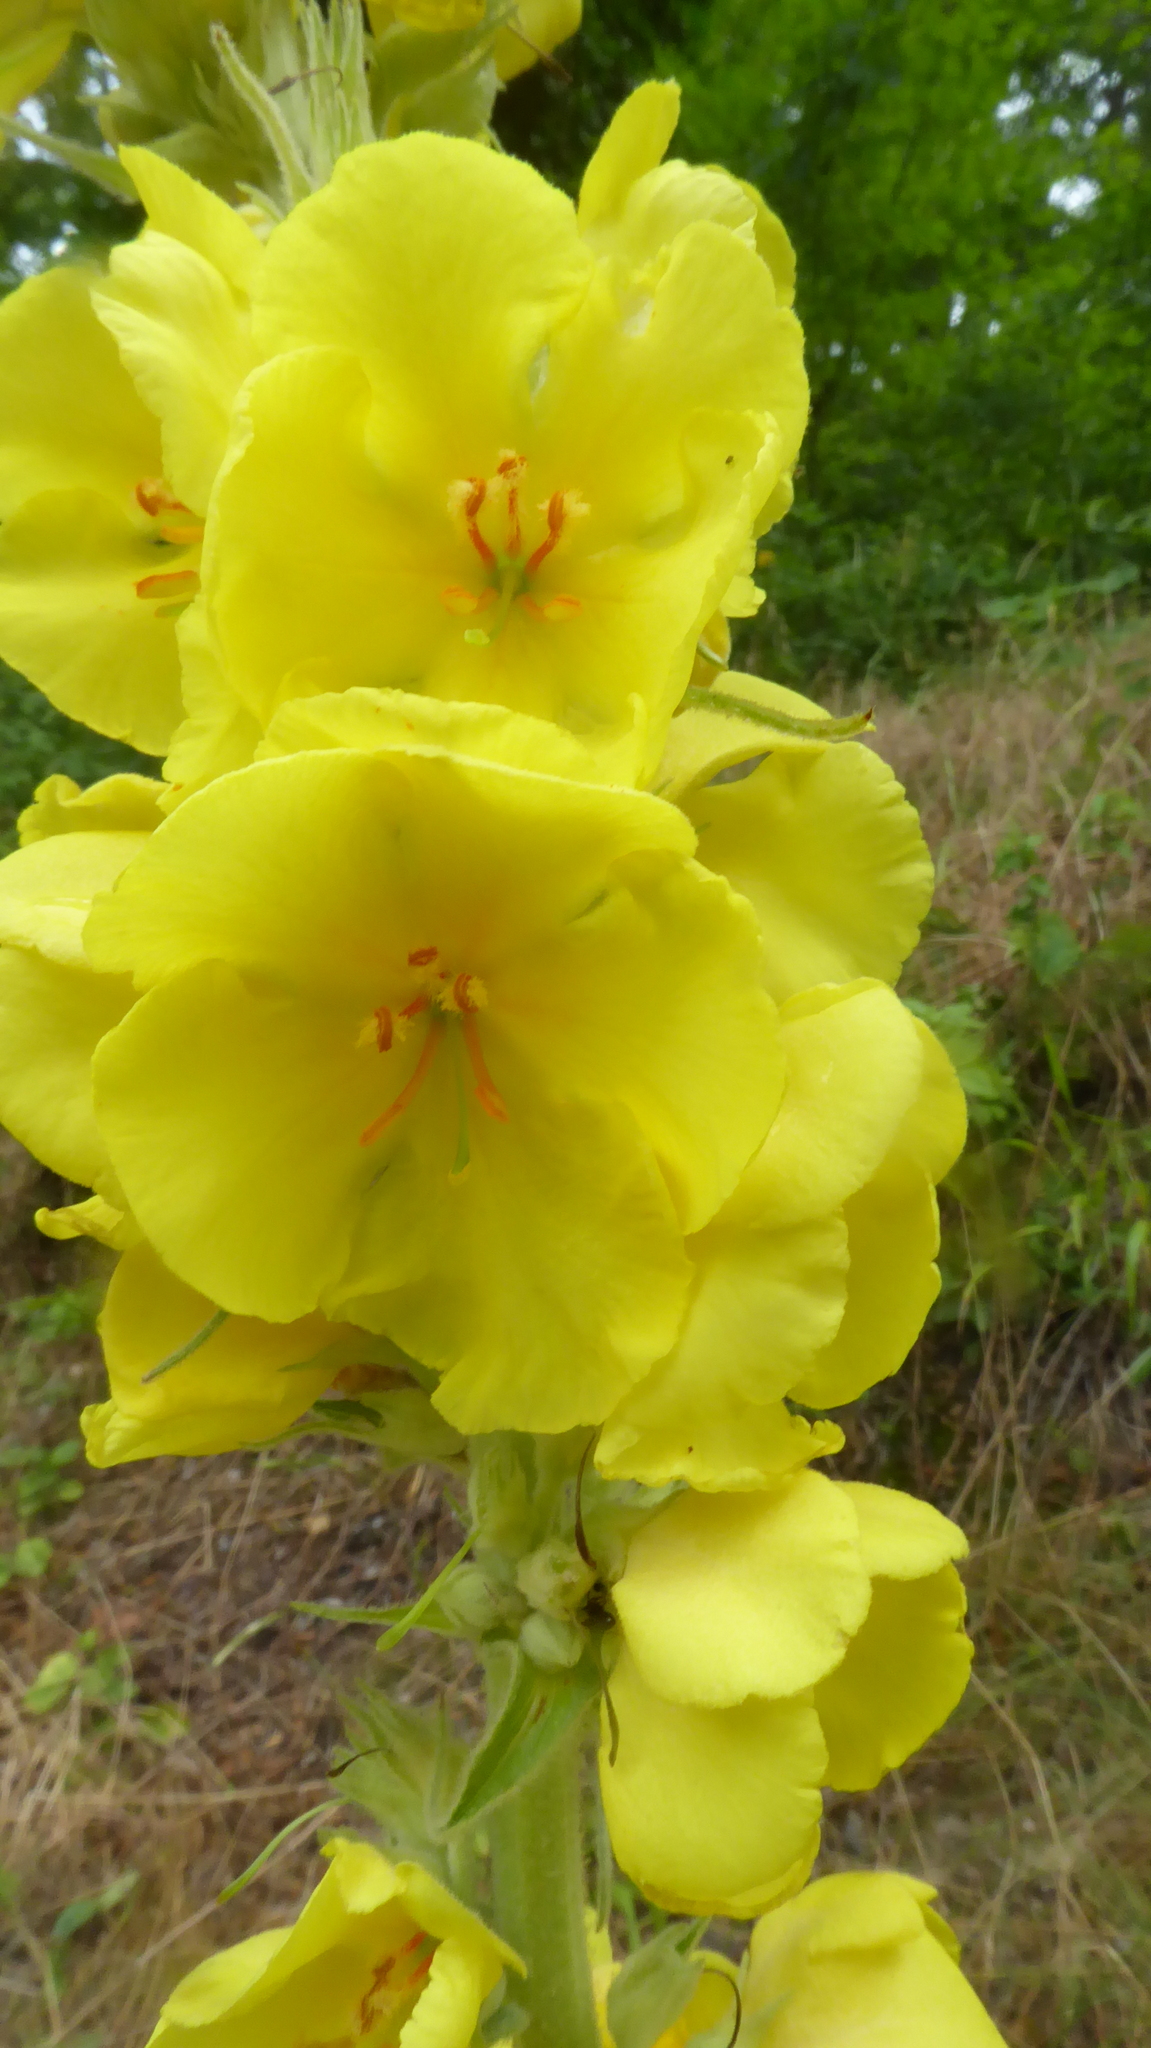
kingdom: Plantae
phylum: Tracheophyta
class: Magnoliopsida
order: Lamiales
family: Scrophulariaceae
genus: Verbascum
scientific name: Verbascum phlomoides
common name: Orange mullein
